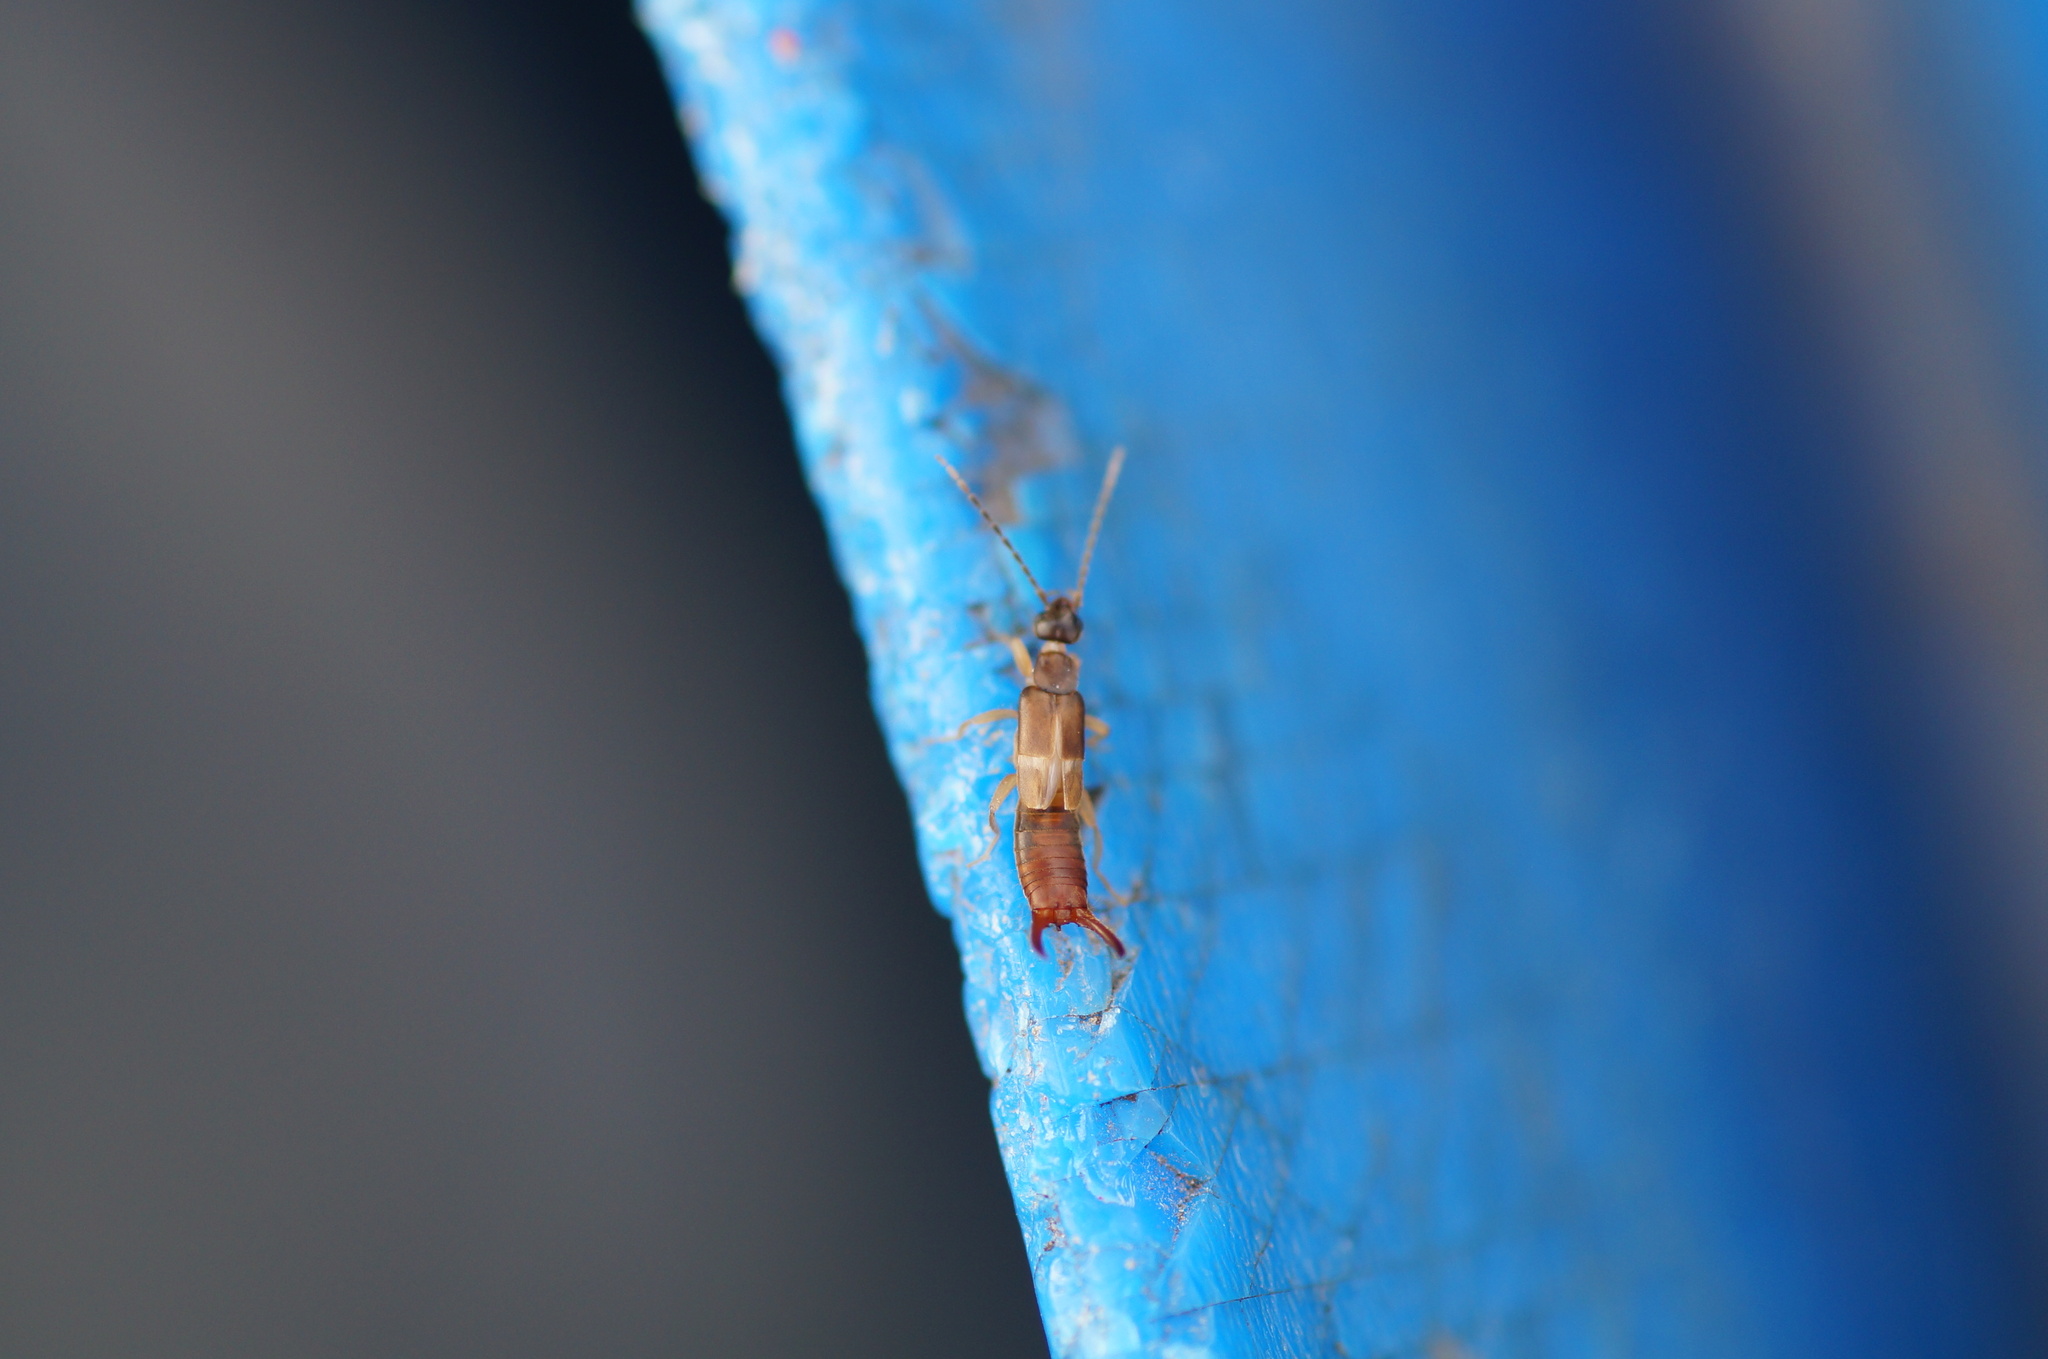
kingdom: Animalia
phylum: Arthropoda
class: Insecta
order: Dermaptera
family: Spongiphoridae
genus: Labia
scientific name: Labia minor
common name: Lesser earwig
